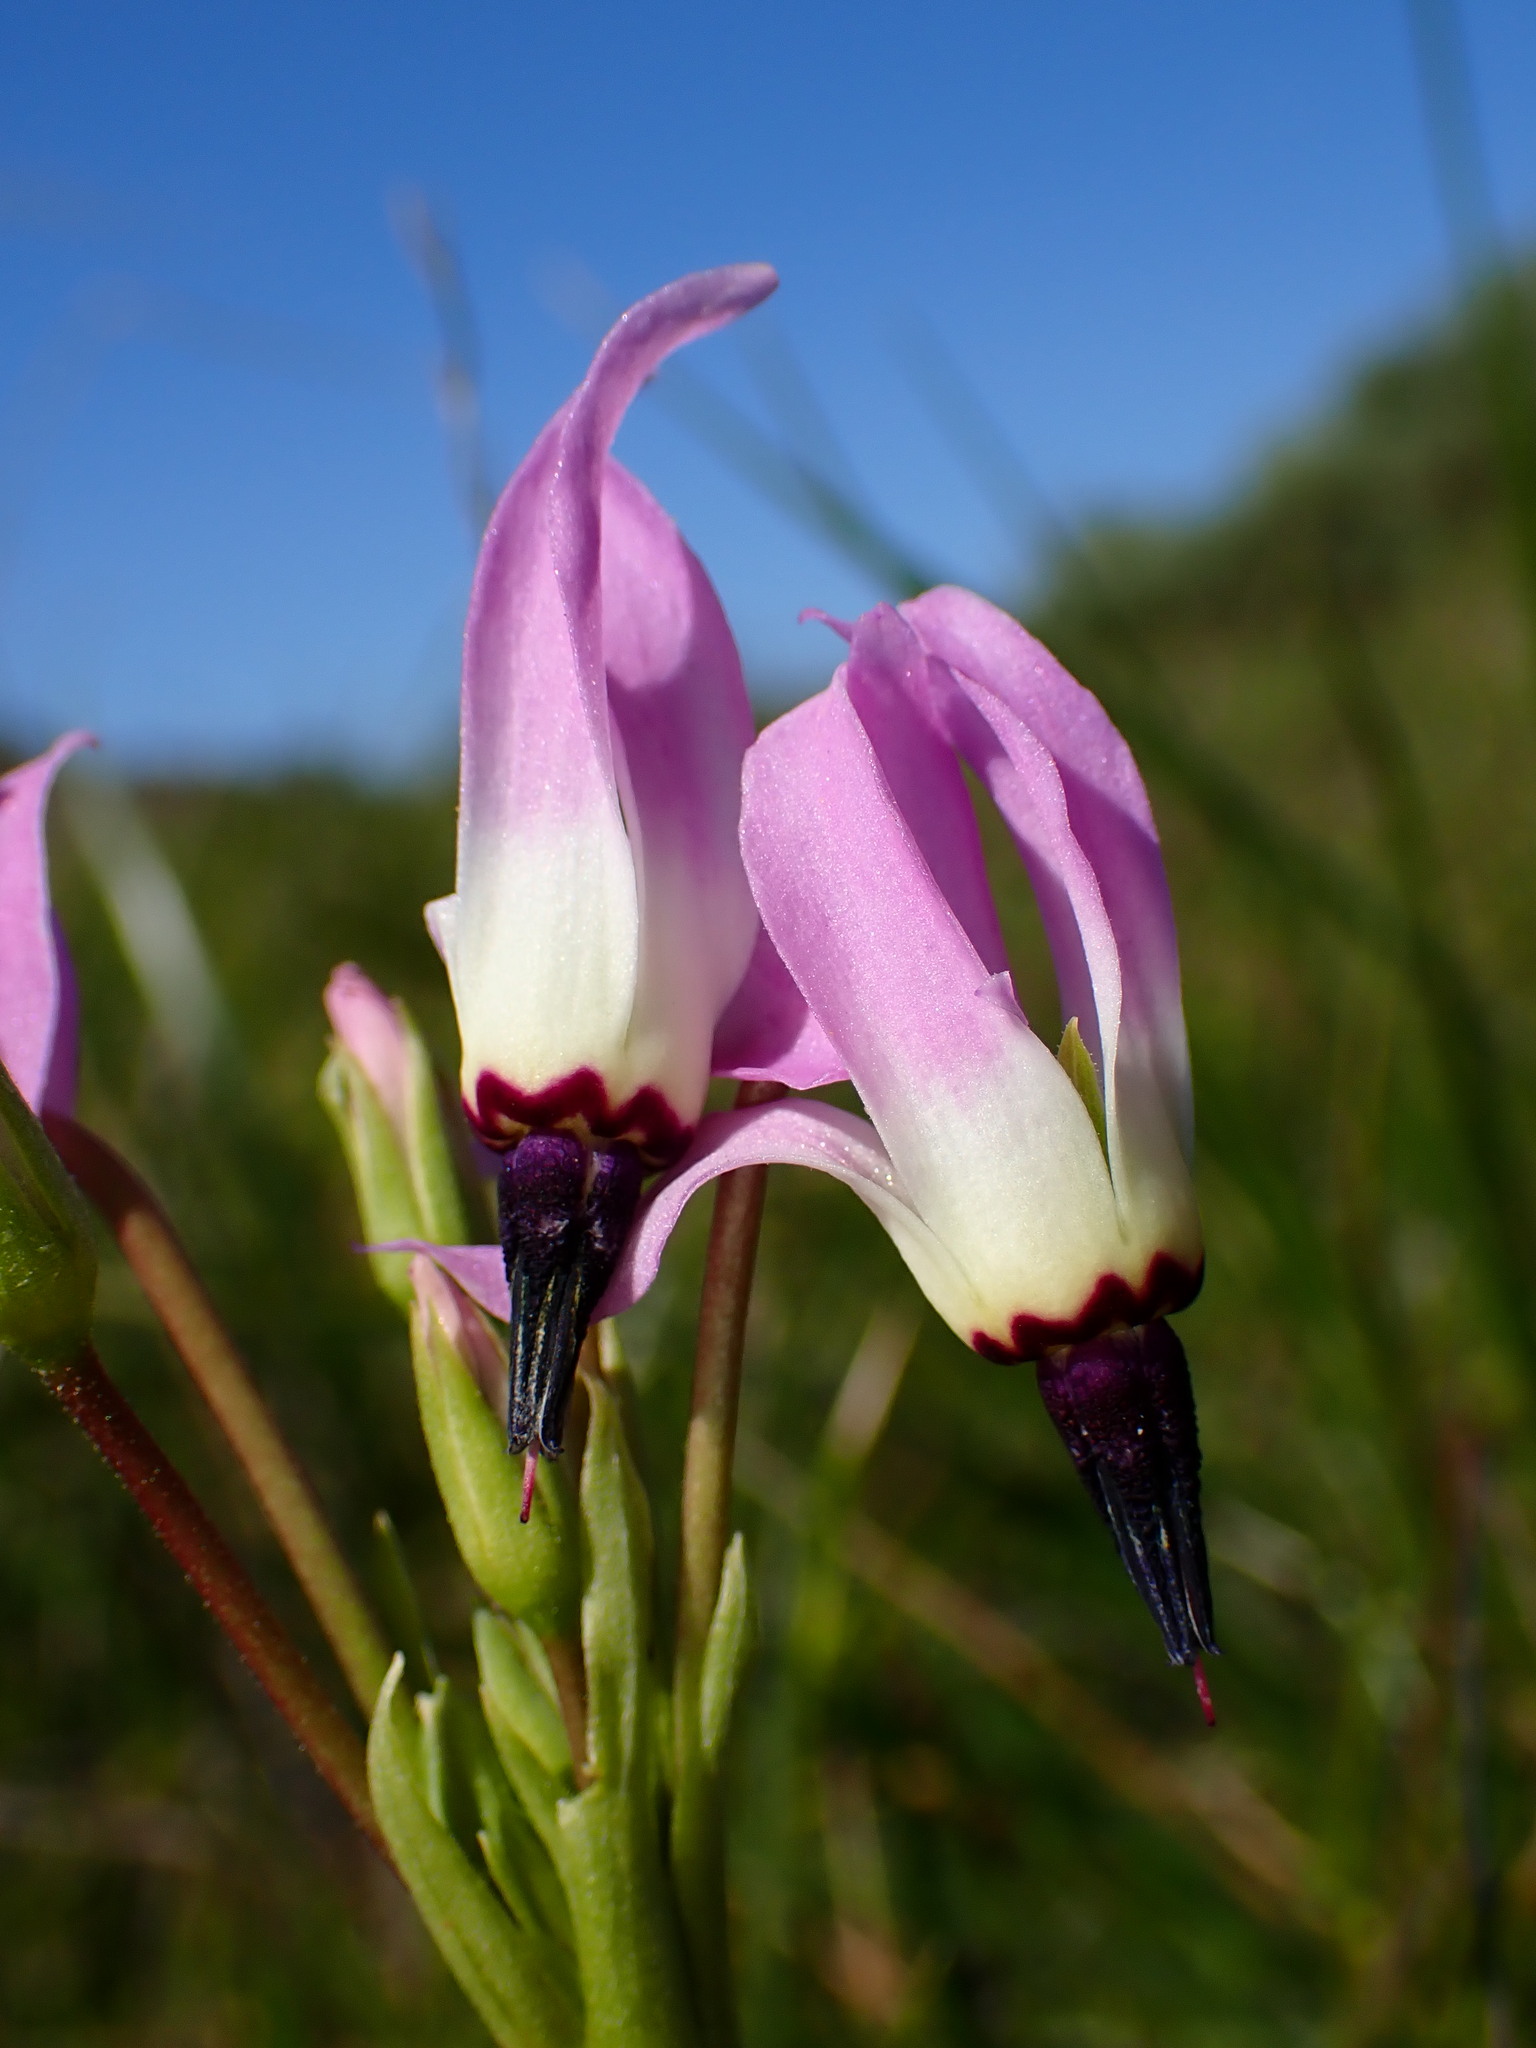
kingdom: Plantae
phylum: Tracheophyta
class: Magnoliopsida
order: Ericales
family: Primulaceae
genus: Dodecatheon
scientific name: Dodecatheon clevelandii
